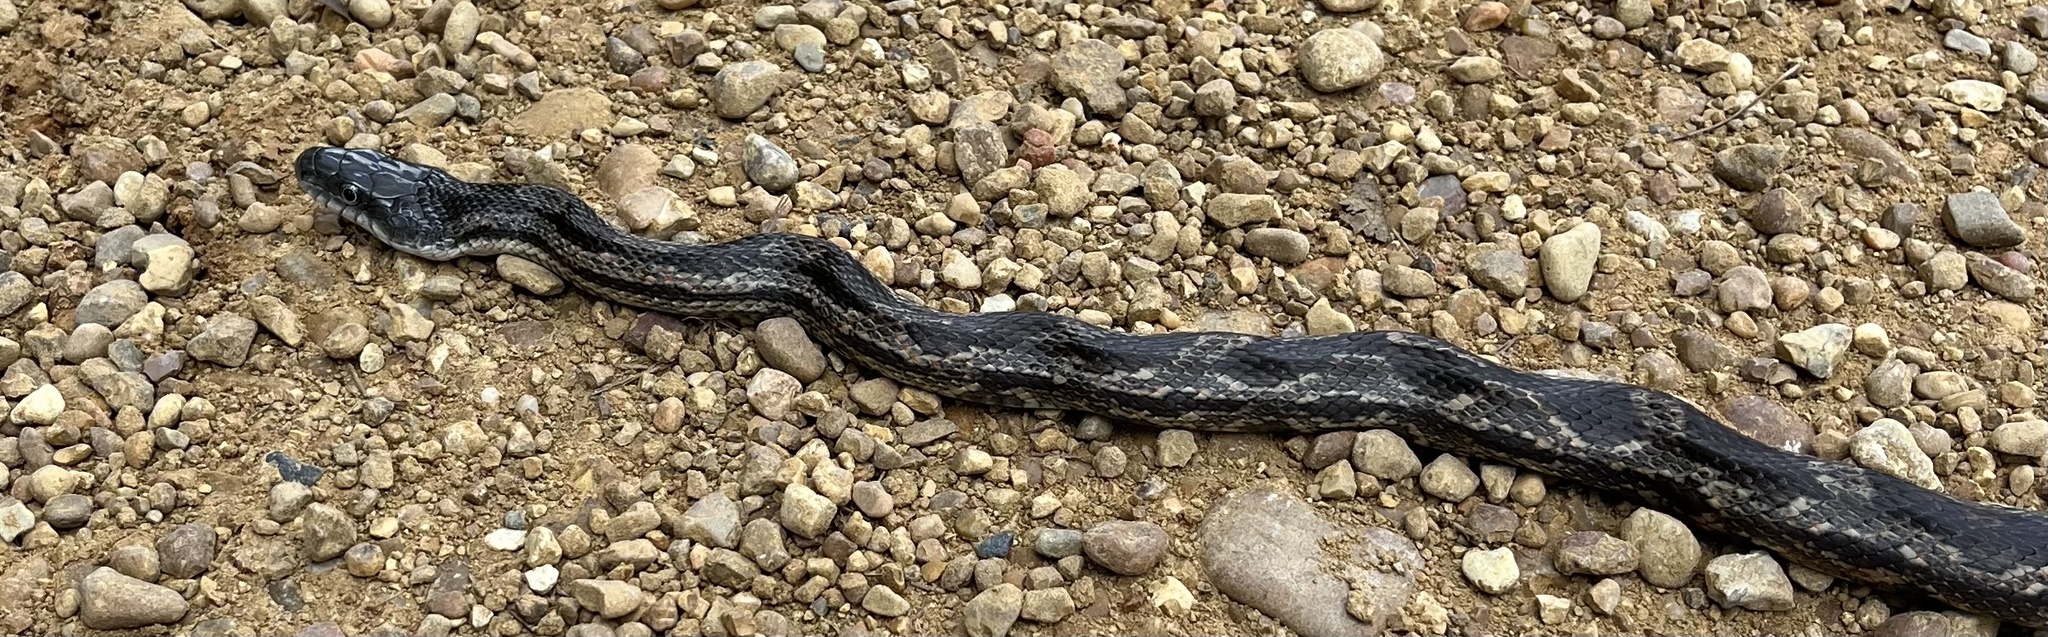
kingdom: Animalia
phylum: Chordata
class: Squamata
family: Colubridae
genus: Pantherophis
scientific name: Pantherophis spiloides
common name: Gray rat snake
